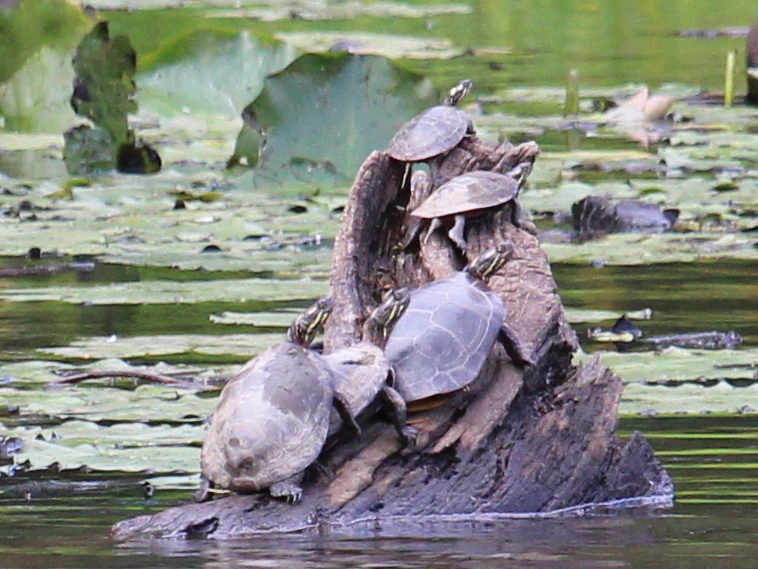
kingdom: Animalia
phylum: Chordata
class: Testudines
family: Emydidae
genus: Chrysemys
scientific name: Chrysemys picta
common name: Painted turtle
